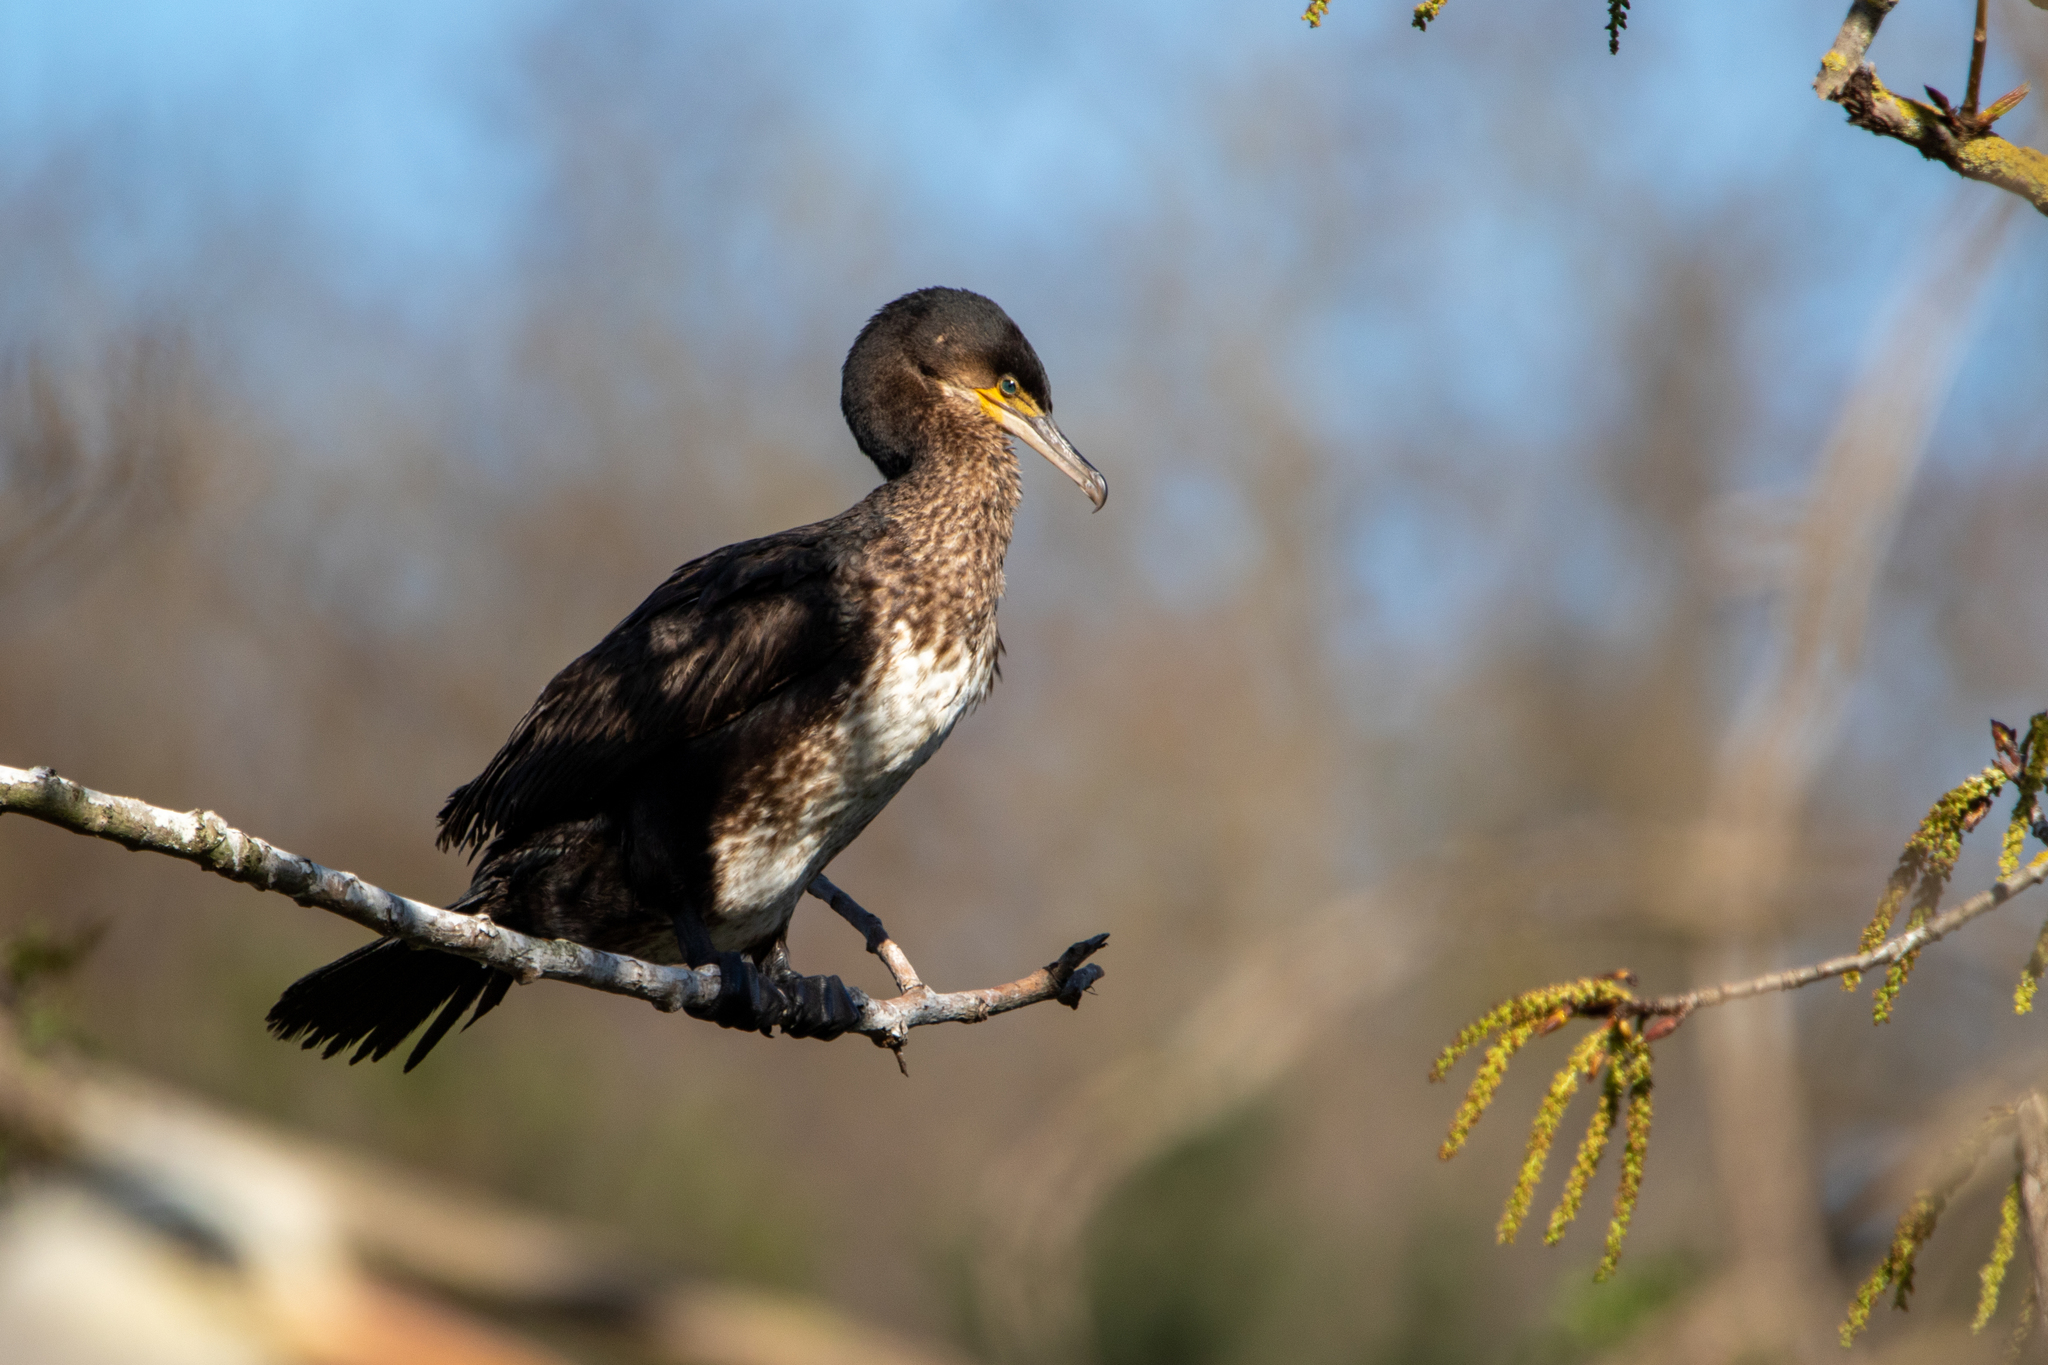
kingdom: Animalia
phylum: Chordata
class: Aves
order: Suliformes
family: Phalacrocoracidae
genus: Phalacrocorax
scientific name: Phalacrocorax carbo
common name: Great cormorant
